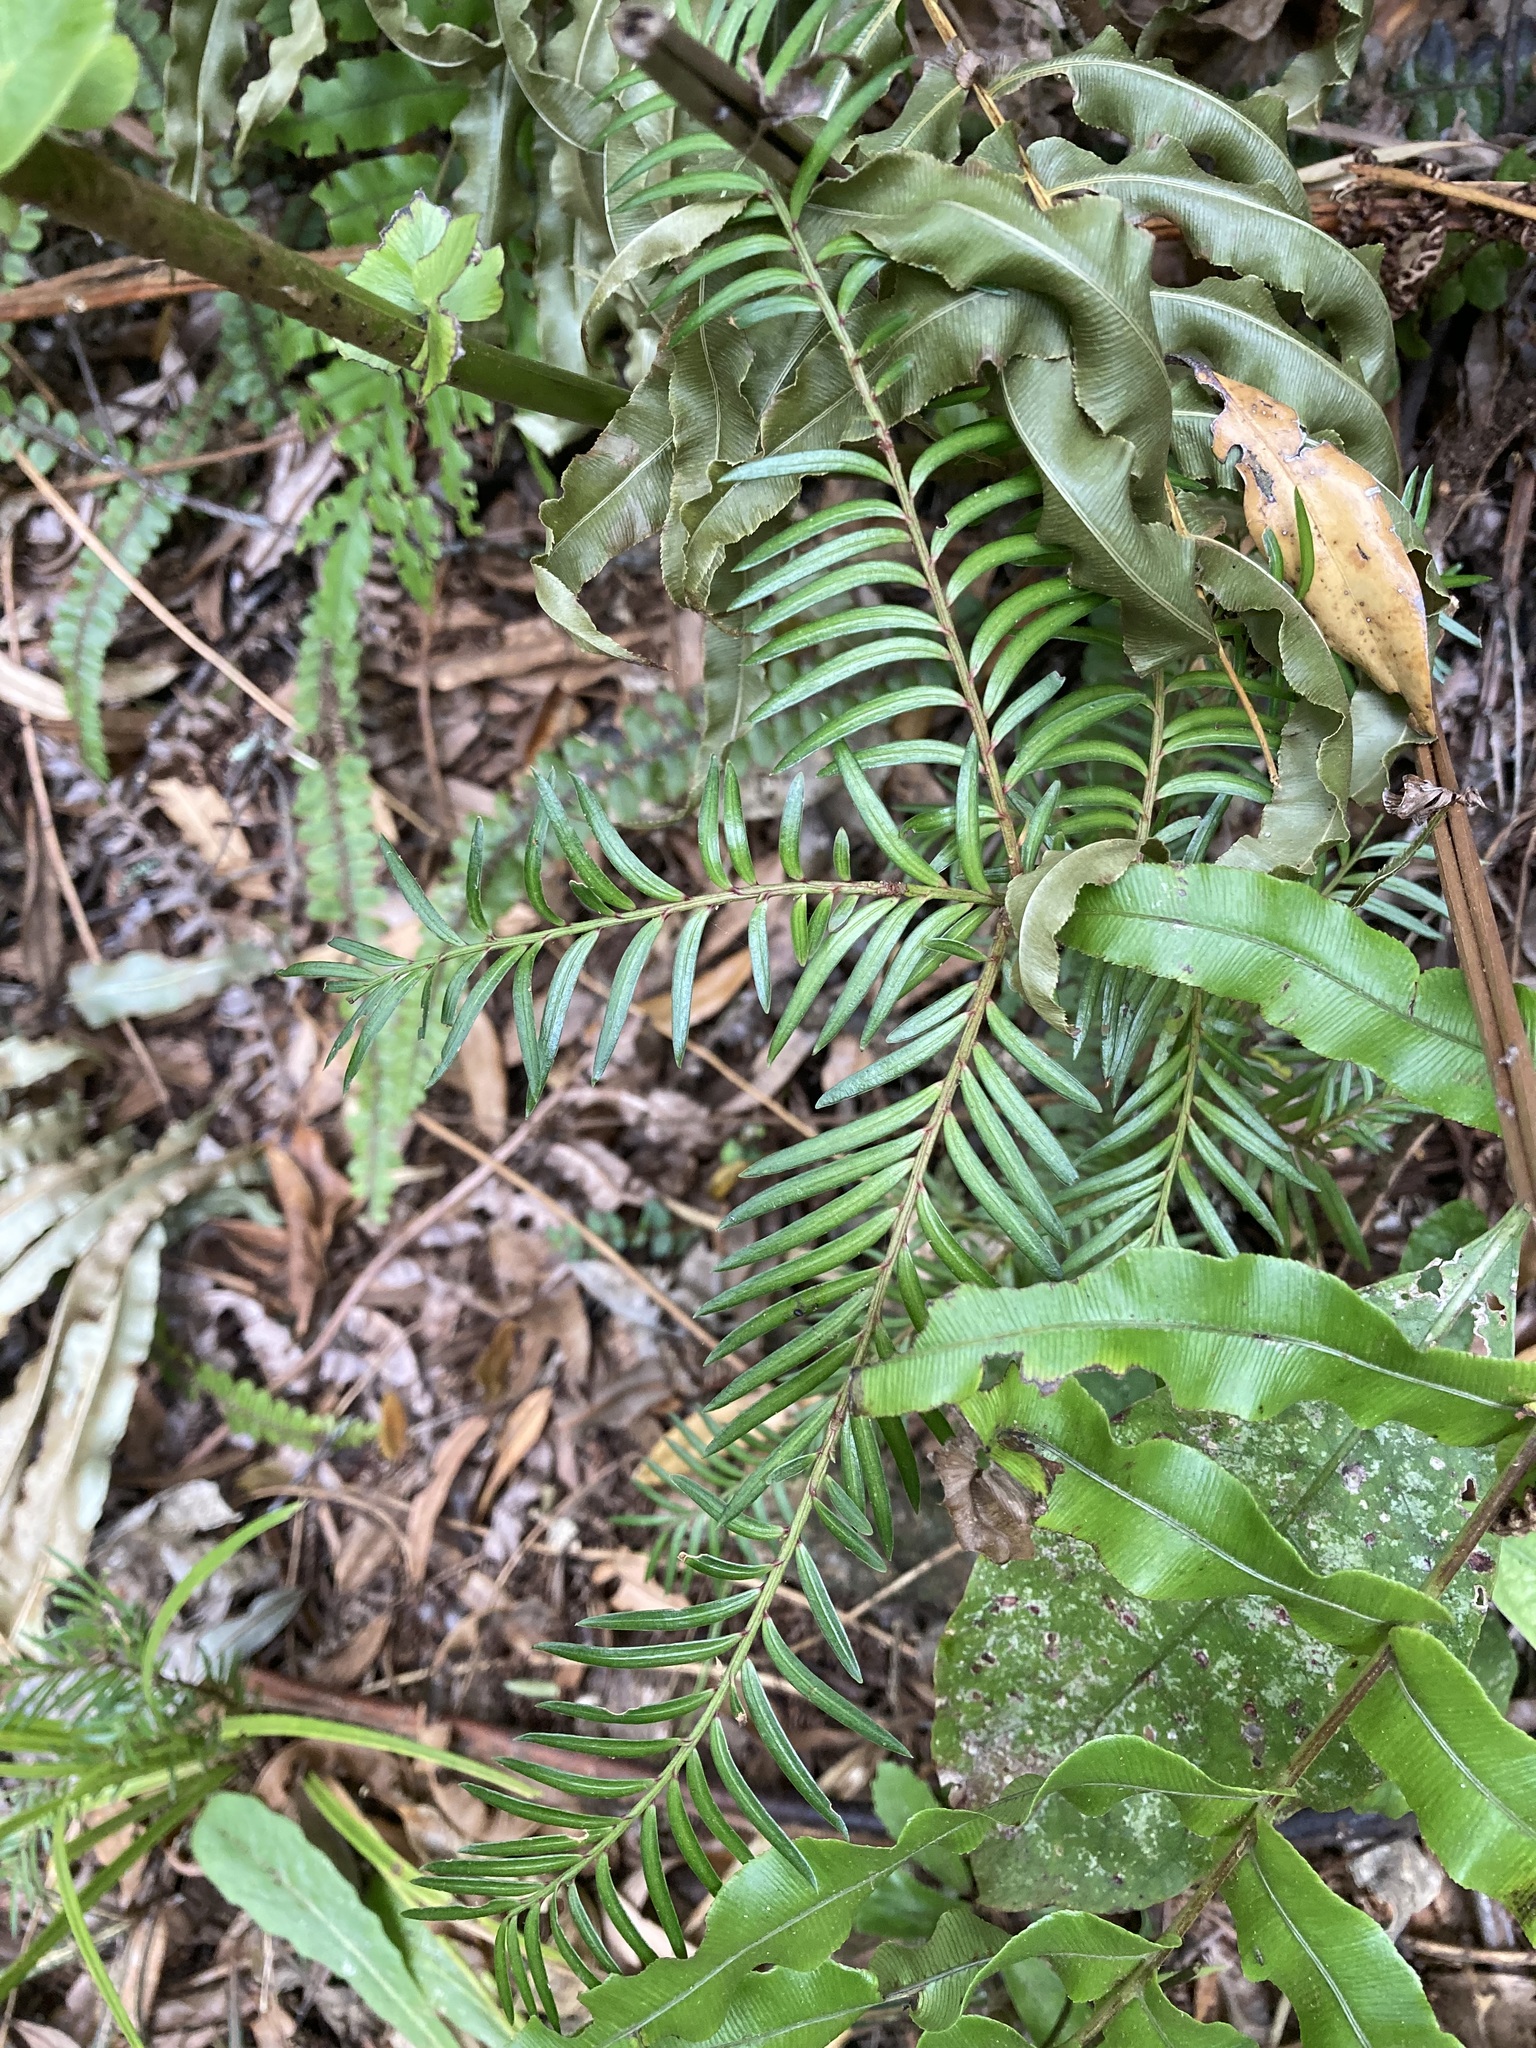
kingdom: Plantae
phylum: Tracheophyta
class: Pinopsida
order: Pinales
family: Podocarpaceae
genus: Prumnopitys
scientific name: Prumnopitys ferruginea
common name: Brown pine
